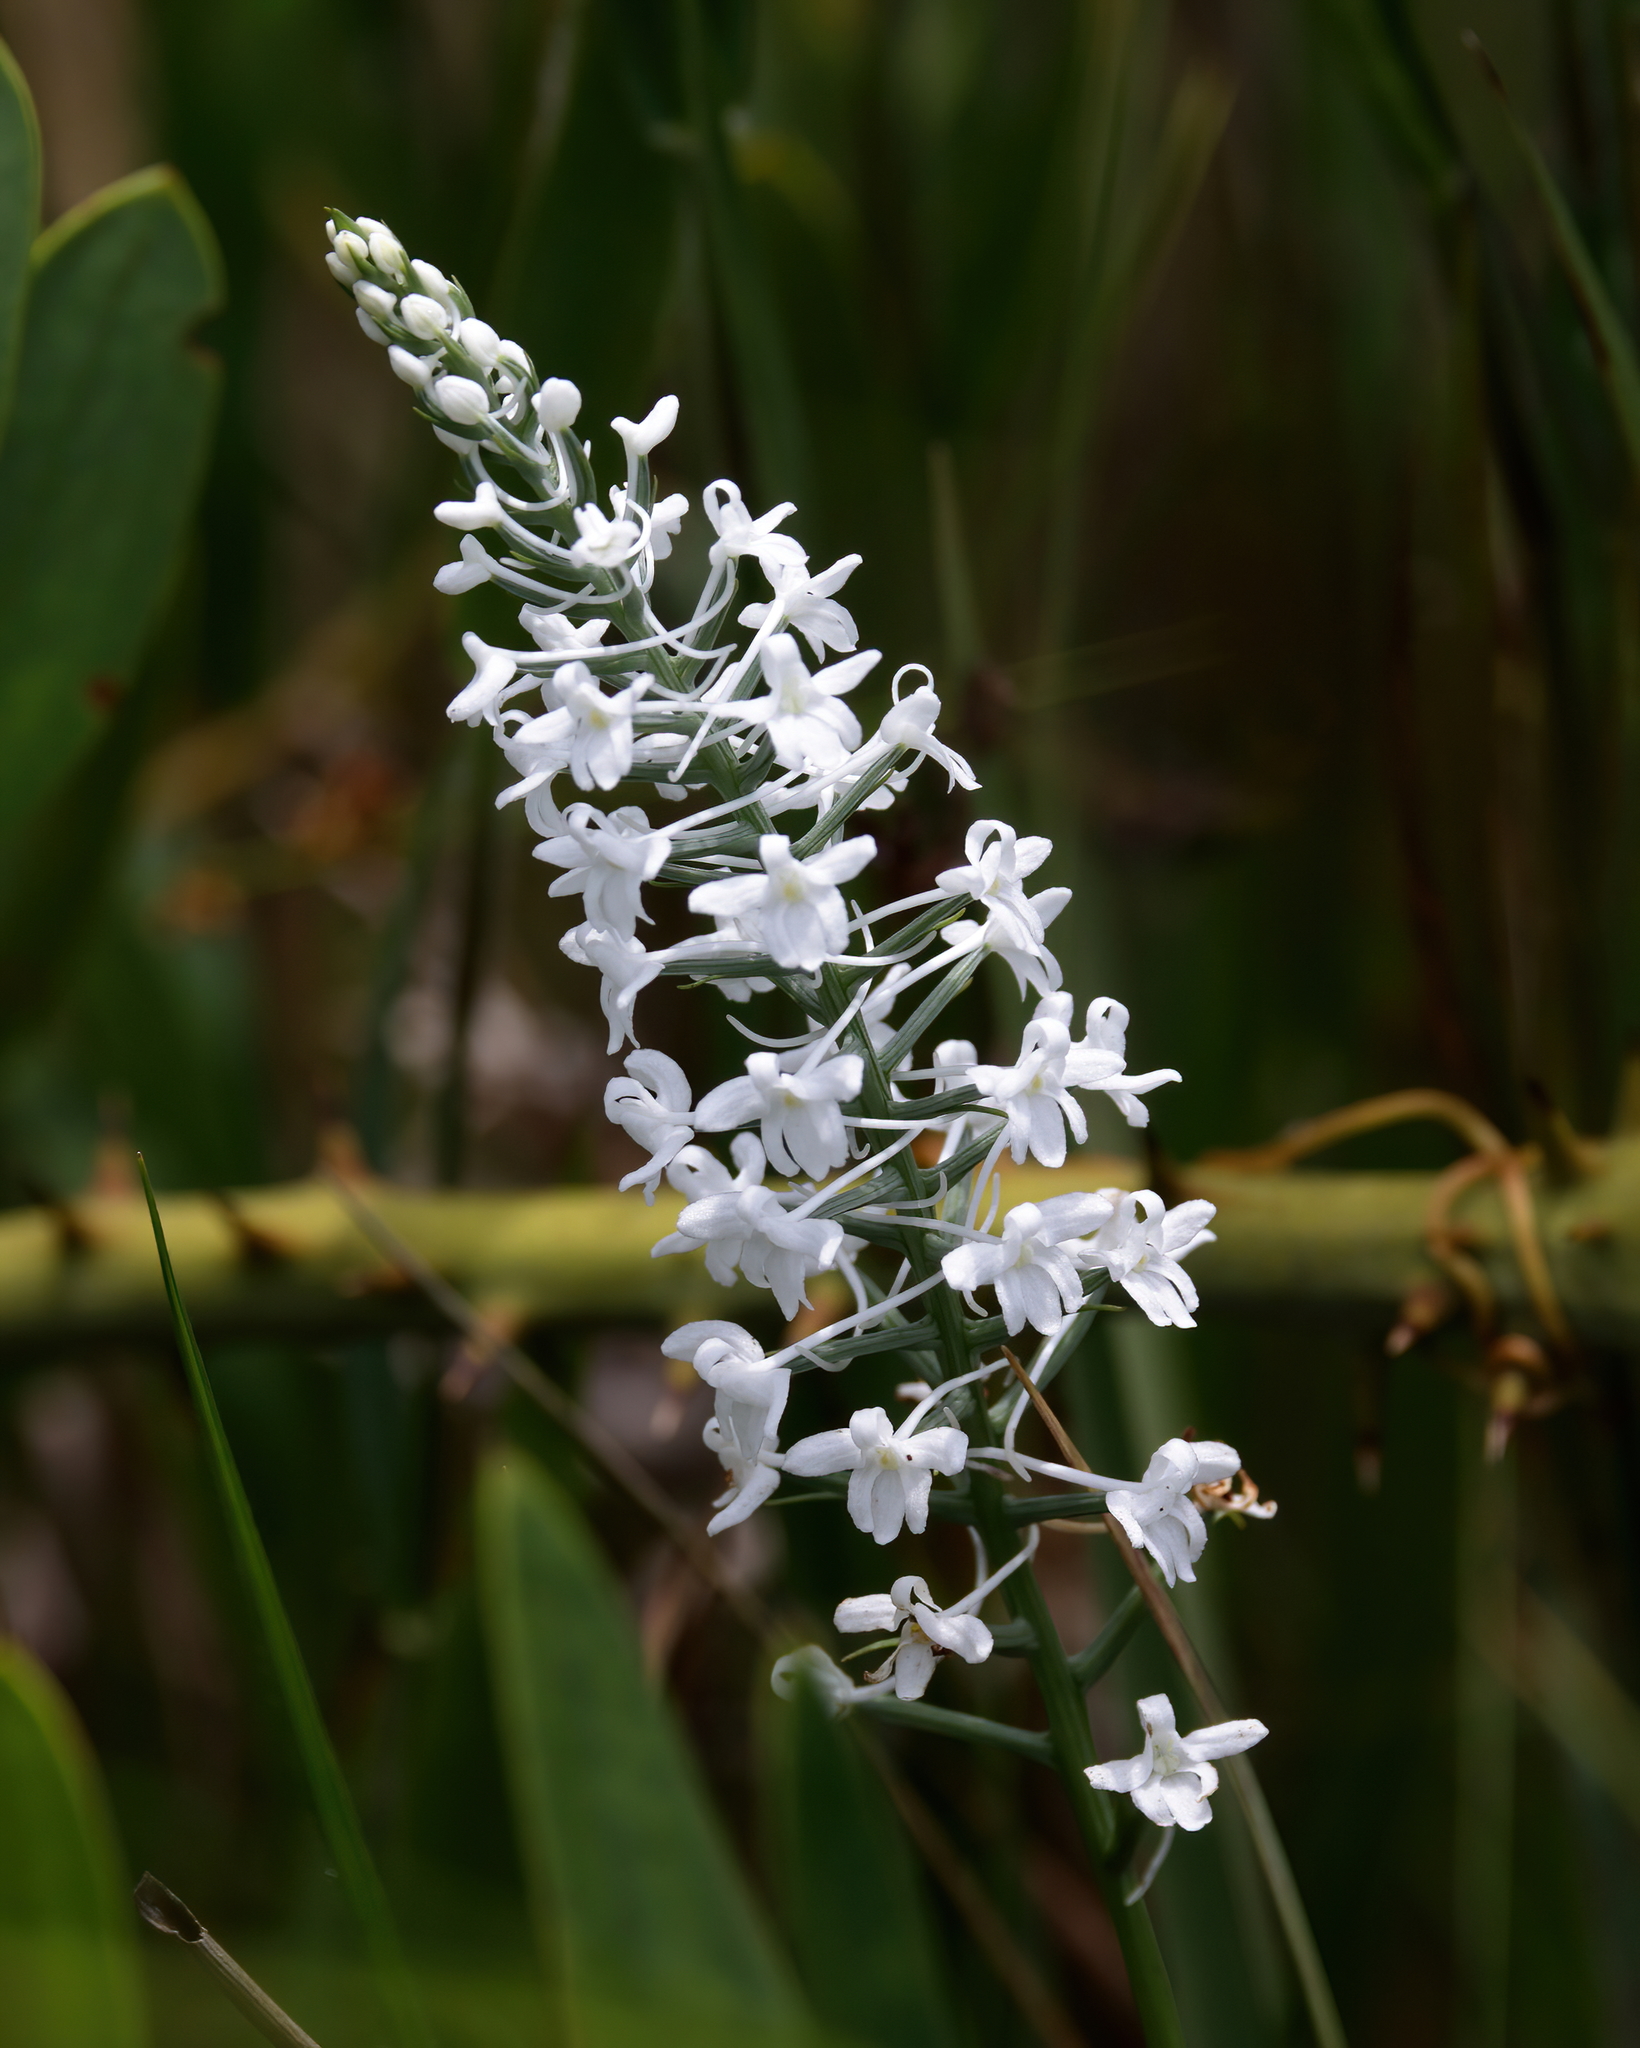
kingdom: Plantae
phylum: Tracheophyta
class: Liliopsida
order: Asparagales
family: Orchidaceae
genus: Platanthera
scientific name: Platanthera nivea
